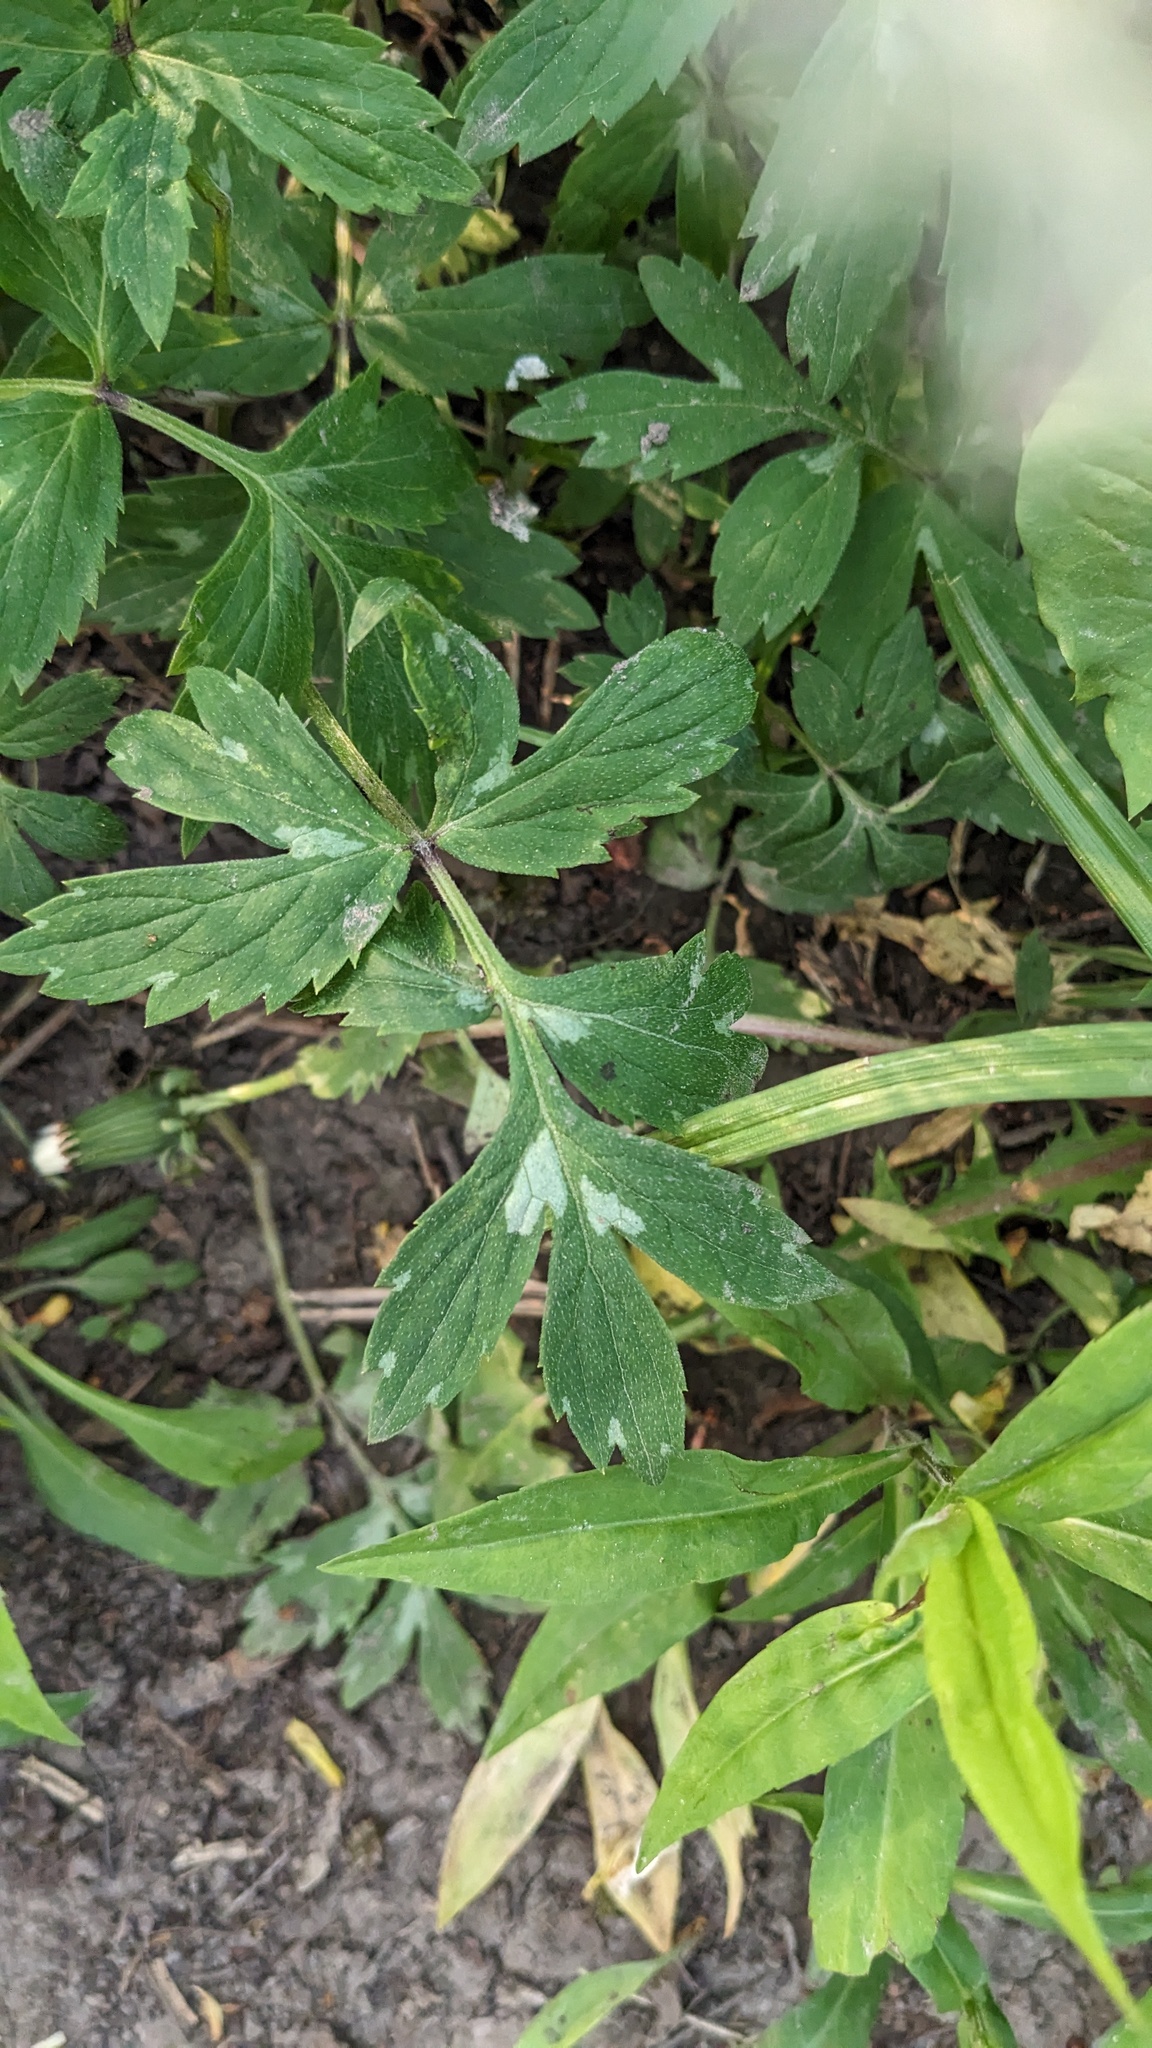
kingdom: Plantae
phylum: Tracheophyta
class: Magnoliopsida
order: Boraginales
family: Hydrophyllaceae
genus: Hydrophyllum
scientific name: Hydrophyllum virginianum
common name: Virginia waterleaf
